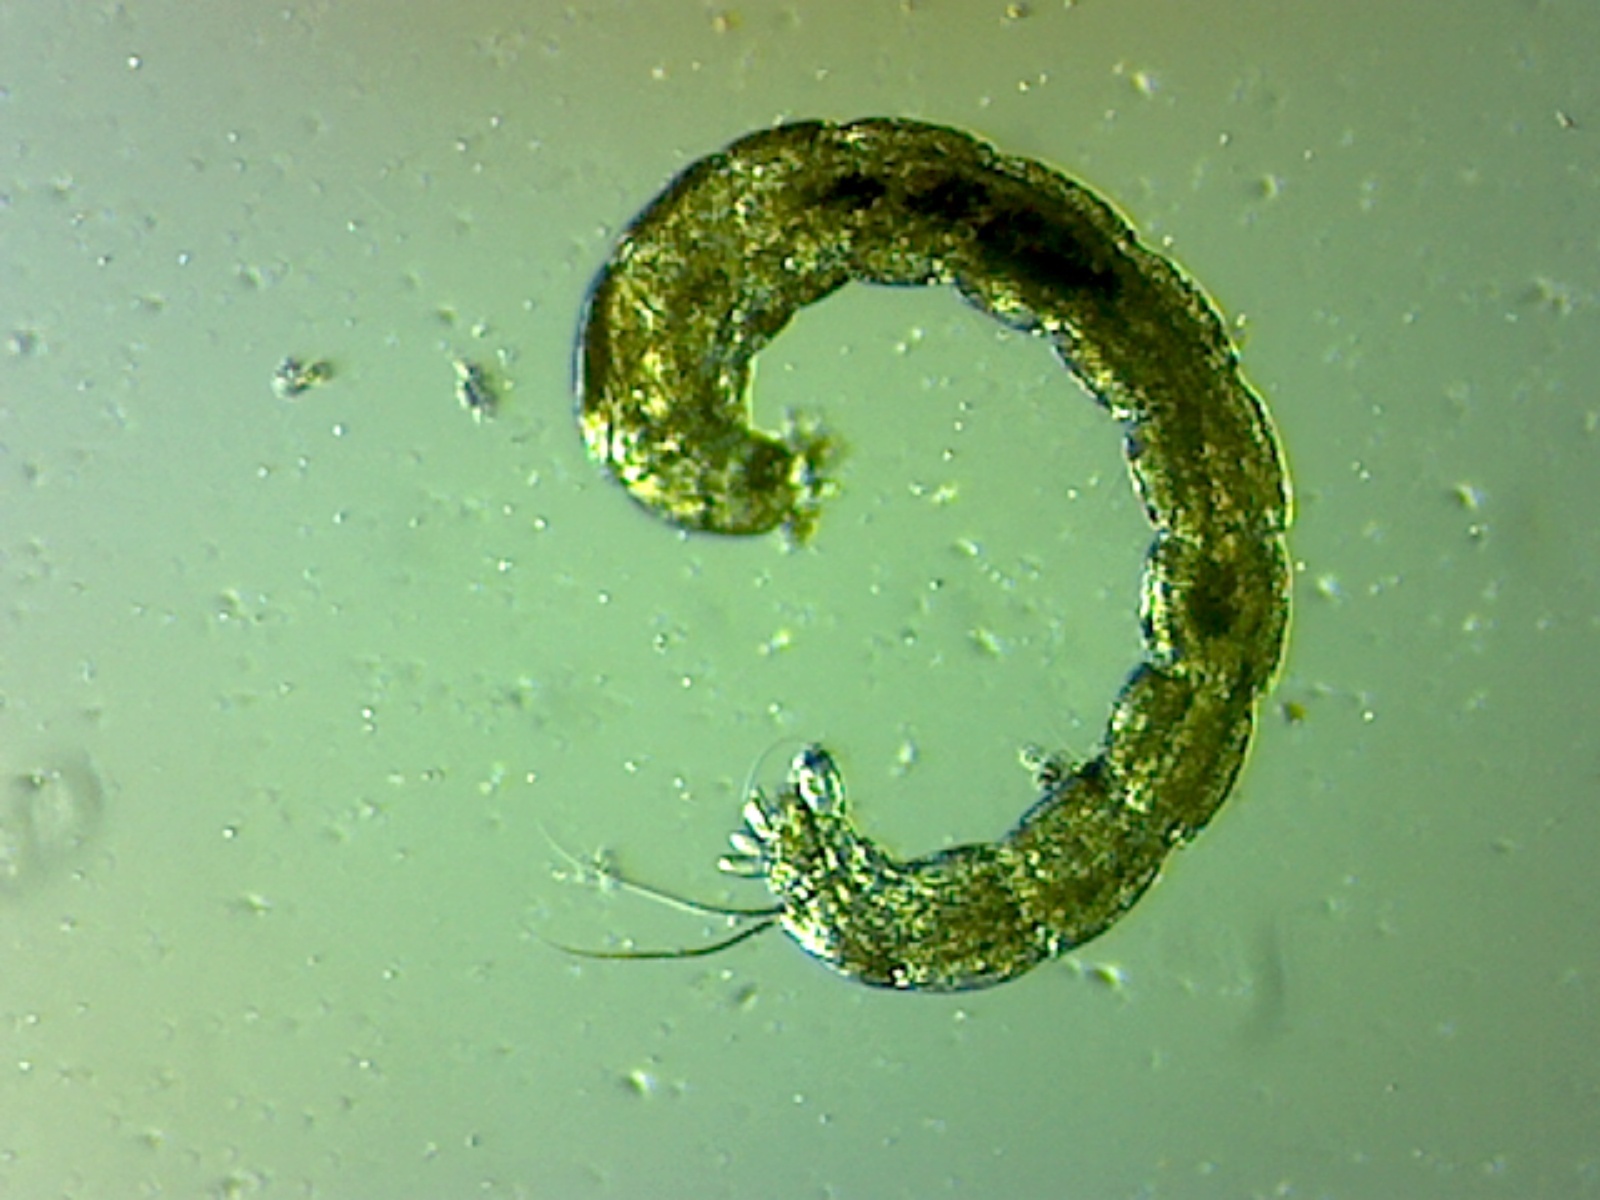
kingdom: Animalia
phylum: Arthropoda
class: Insecta
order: Diptera
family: Chironomidae
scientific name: Chironomidae
